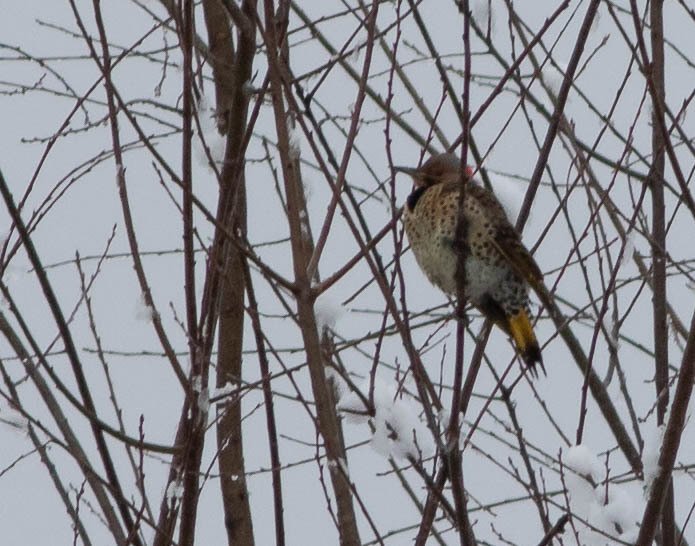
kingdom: Animalia
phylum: Chordata
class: Aves
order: Piciformes
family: Picidae
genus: Colaptes
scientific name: Colaptes auratus
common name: Northern flicker
